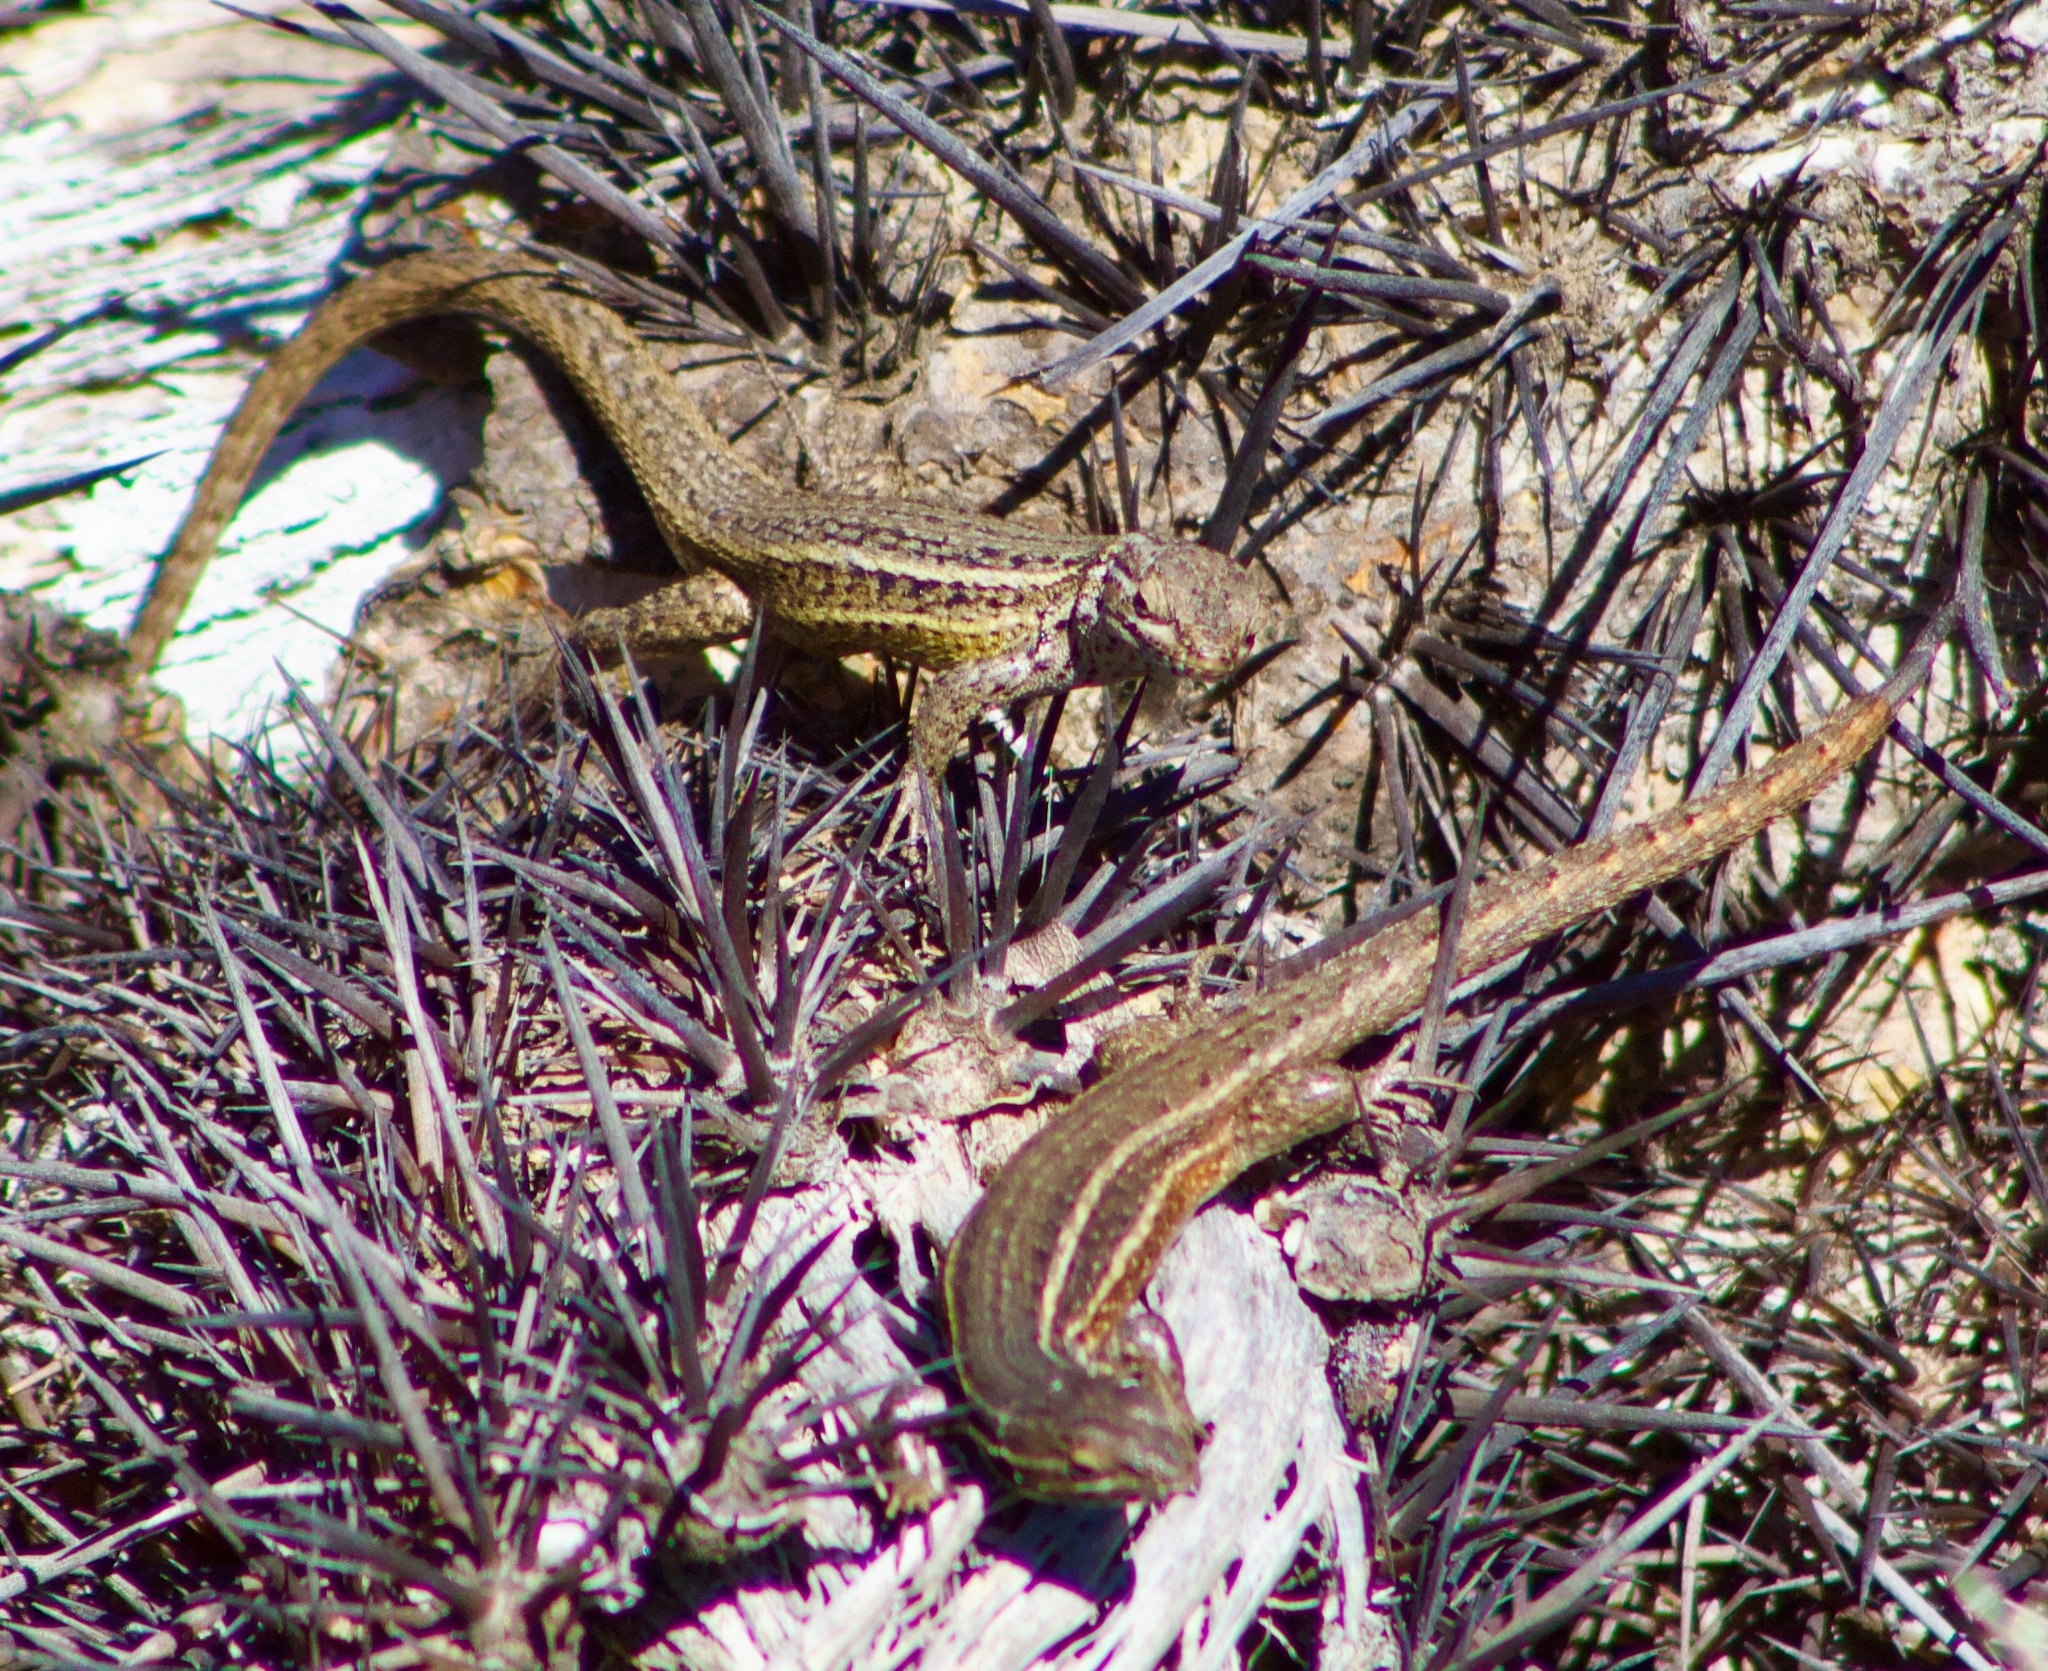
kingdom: Animalia
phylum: Chordata
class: Squamata
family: Liolaemidae
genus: Liolaemus
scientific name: Liolaemus fuscus
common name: Brown tree iguana
